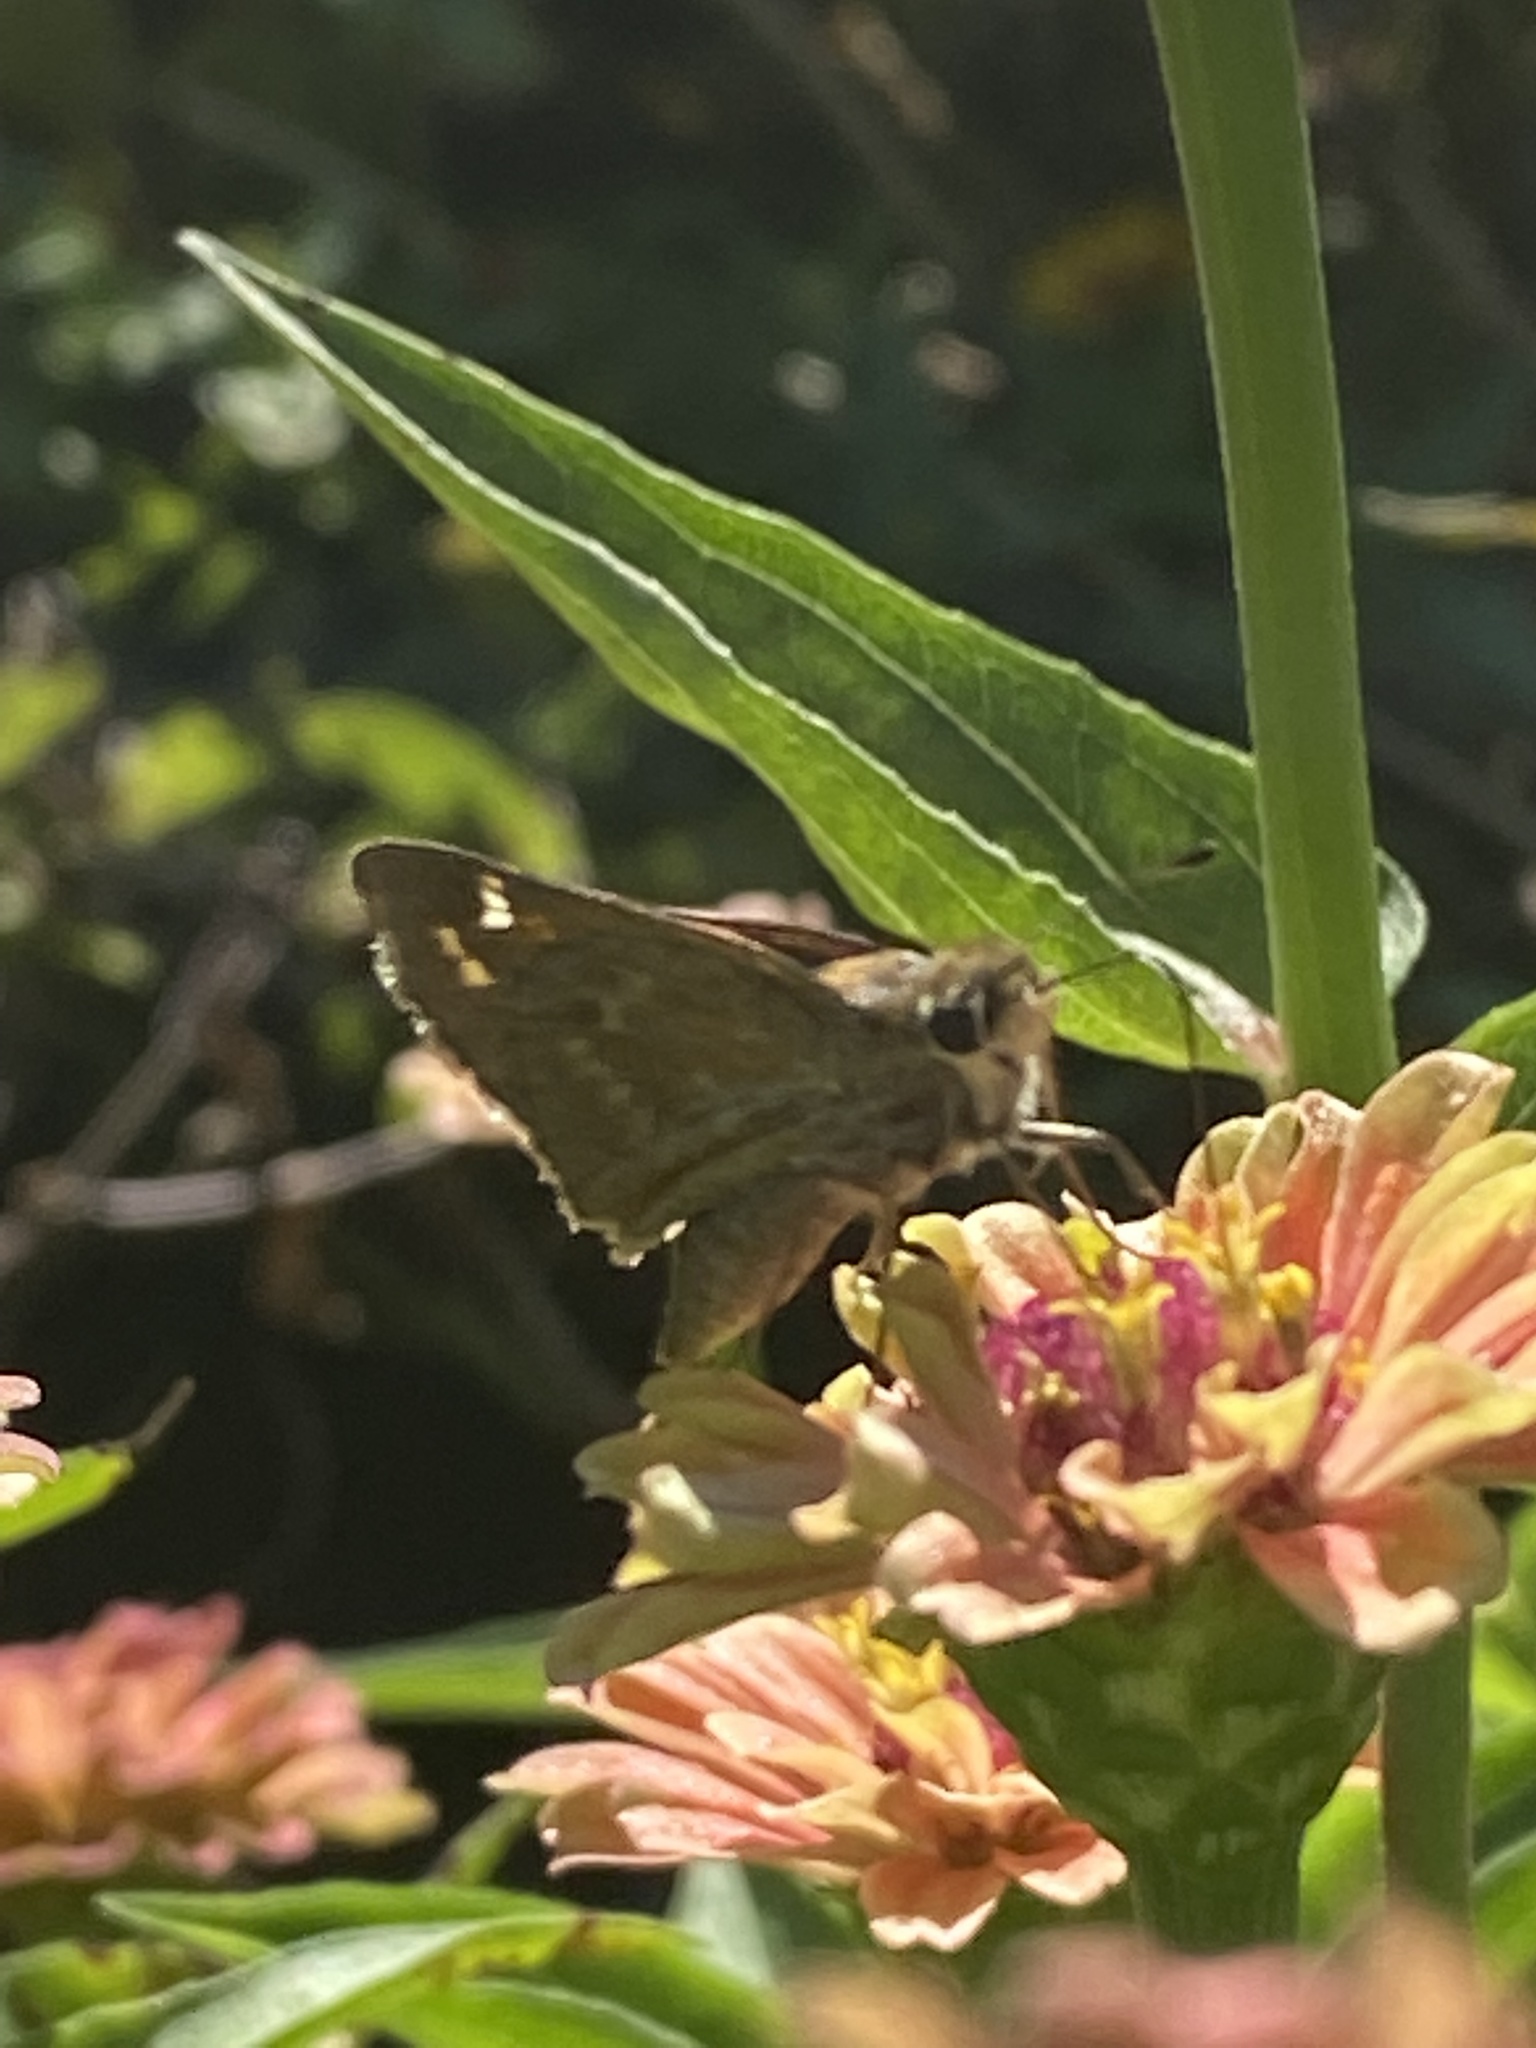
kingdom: Animalia
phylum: Arthropoda
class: Insecta
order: Lepidoptera
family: Hesperiidae
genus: Atalopedes
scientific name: Atalopedes
